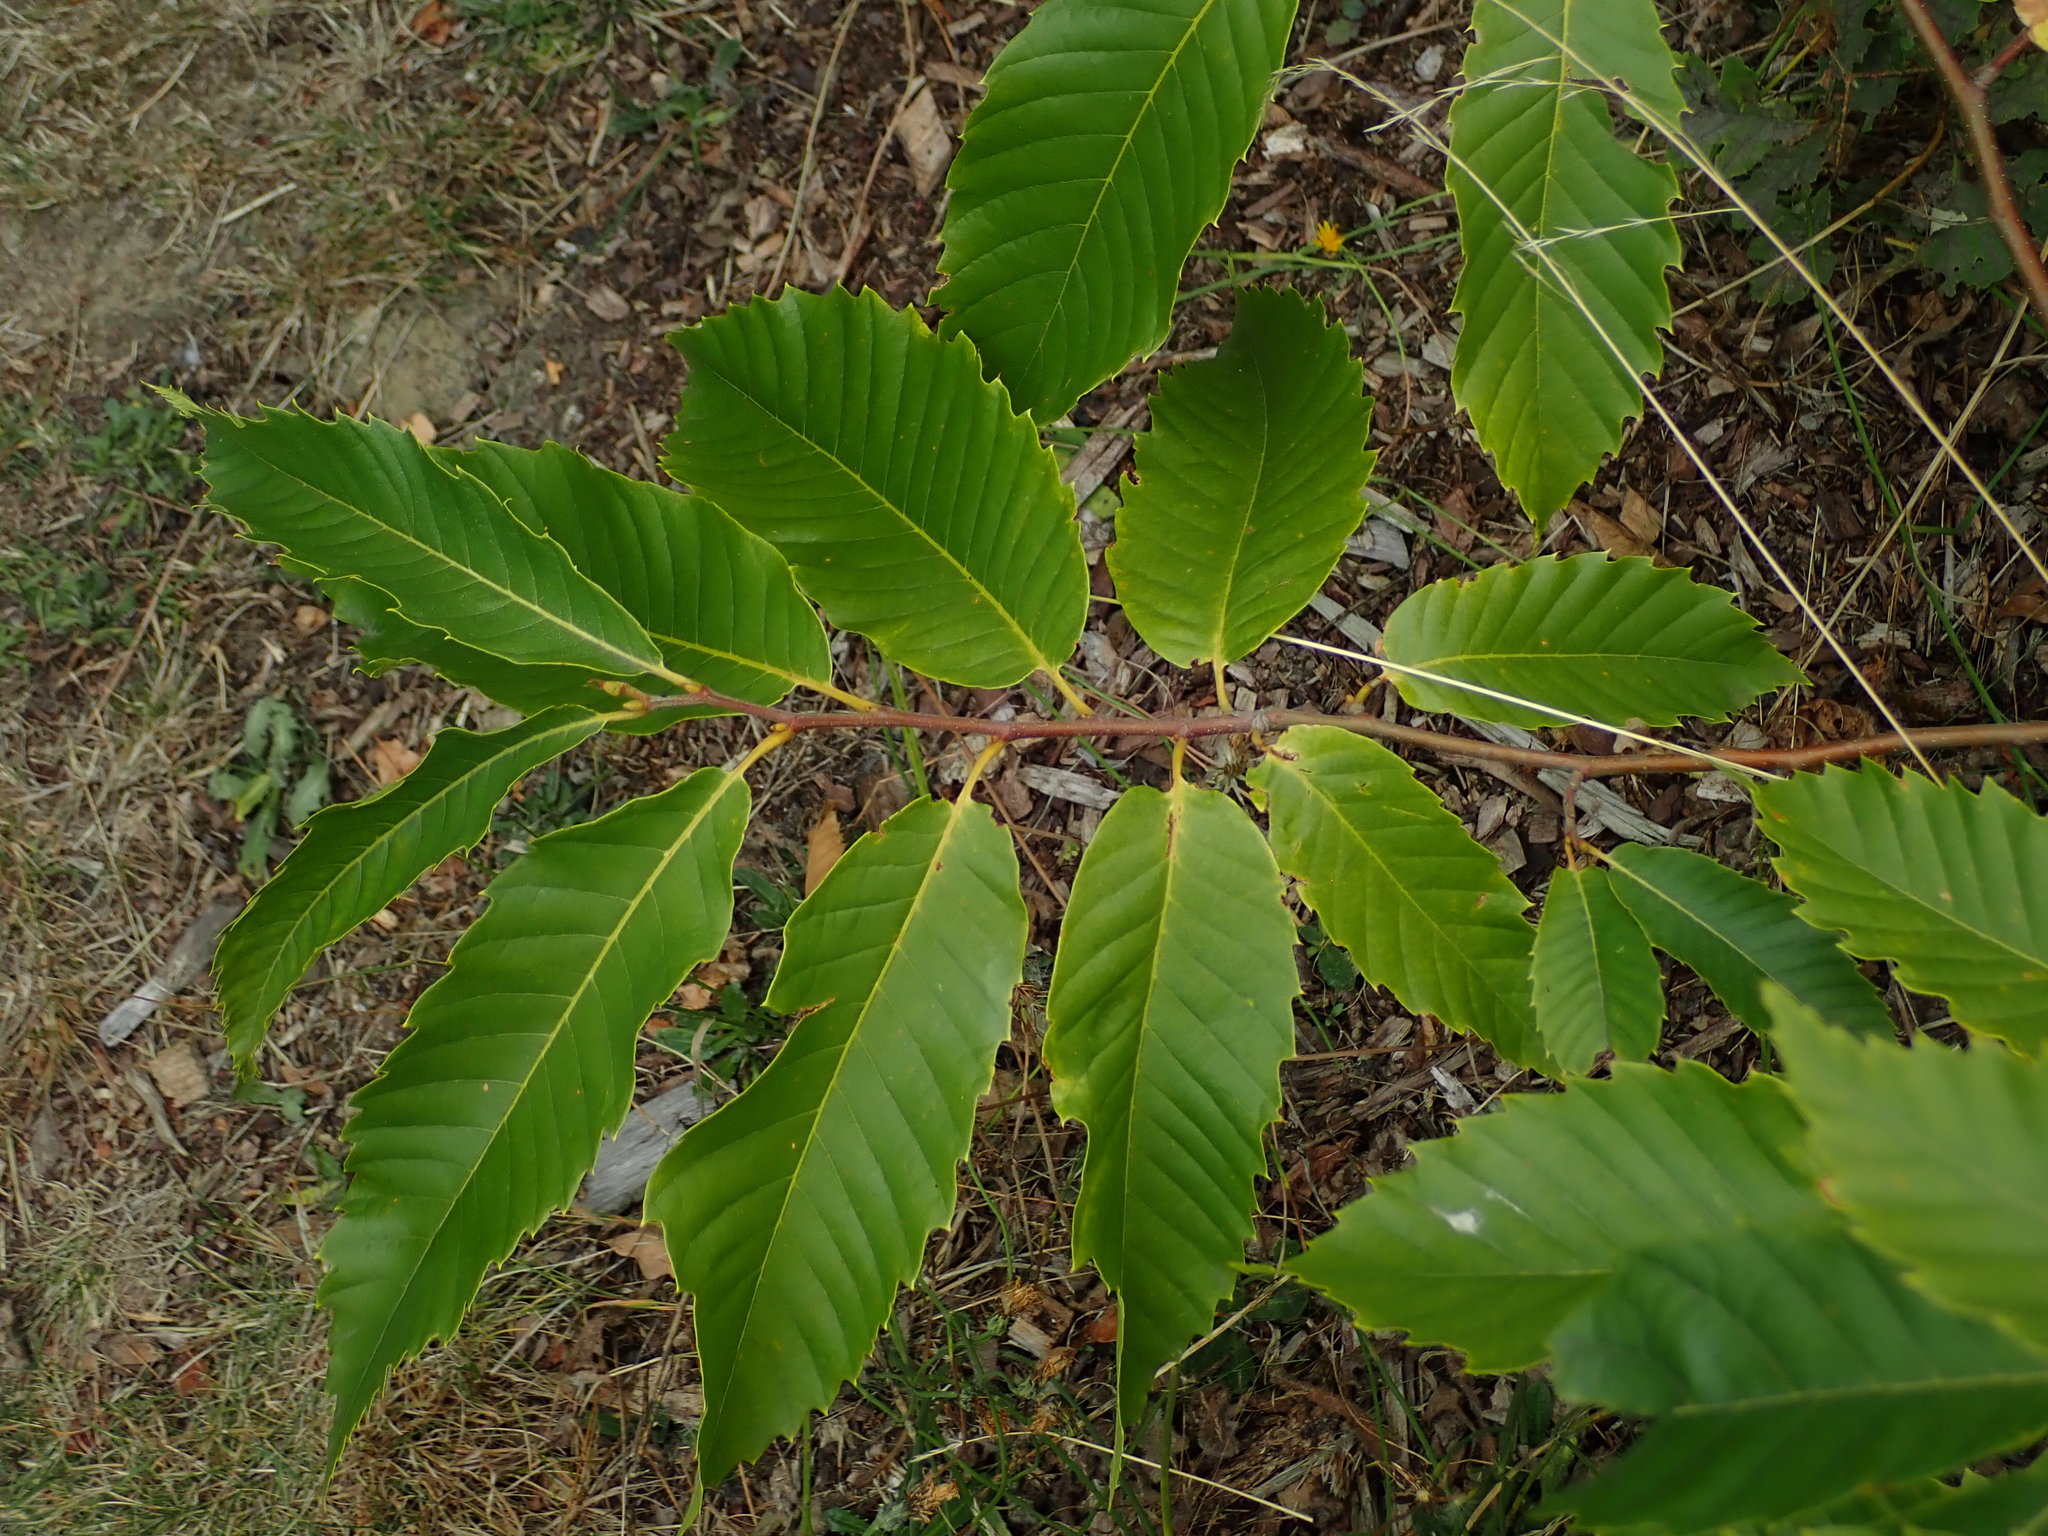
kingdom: Plantae
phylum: Tracheophyta
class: Magnoliopsida
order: Fagales
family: Fagaceae
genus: Castanea
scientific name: Castanea sativa
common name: Sweet chestnut
